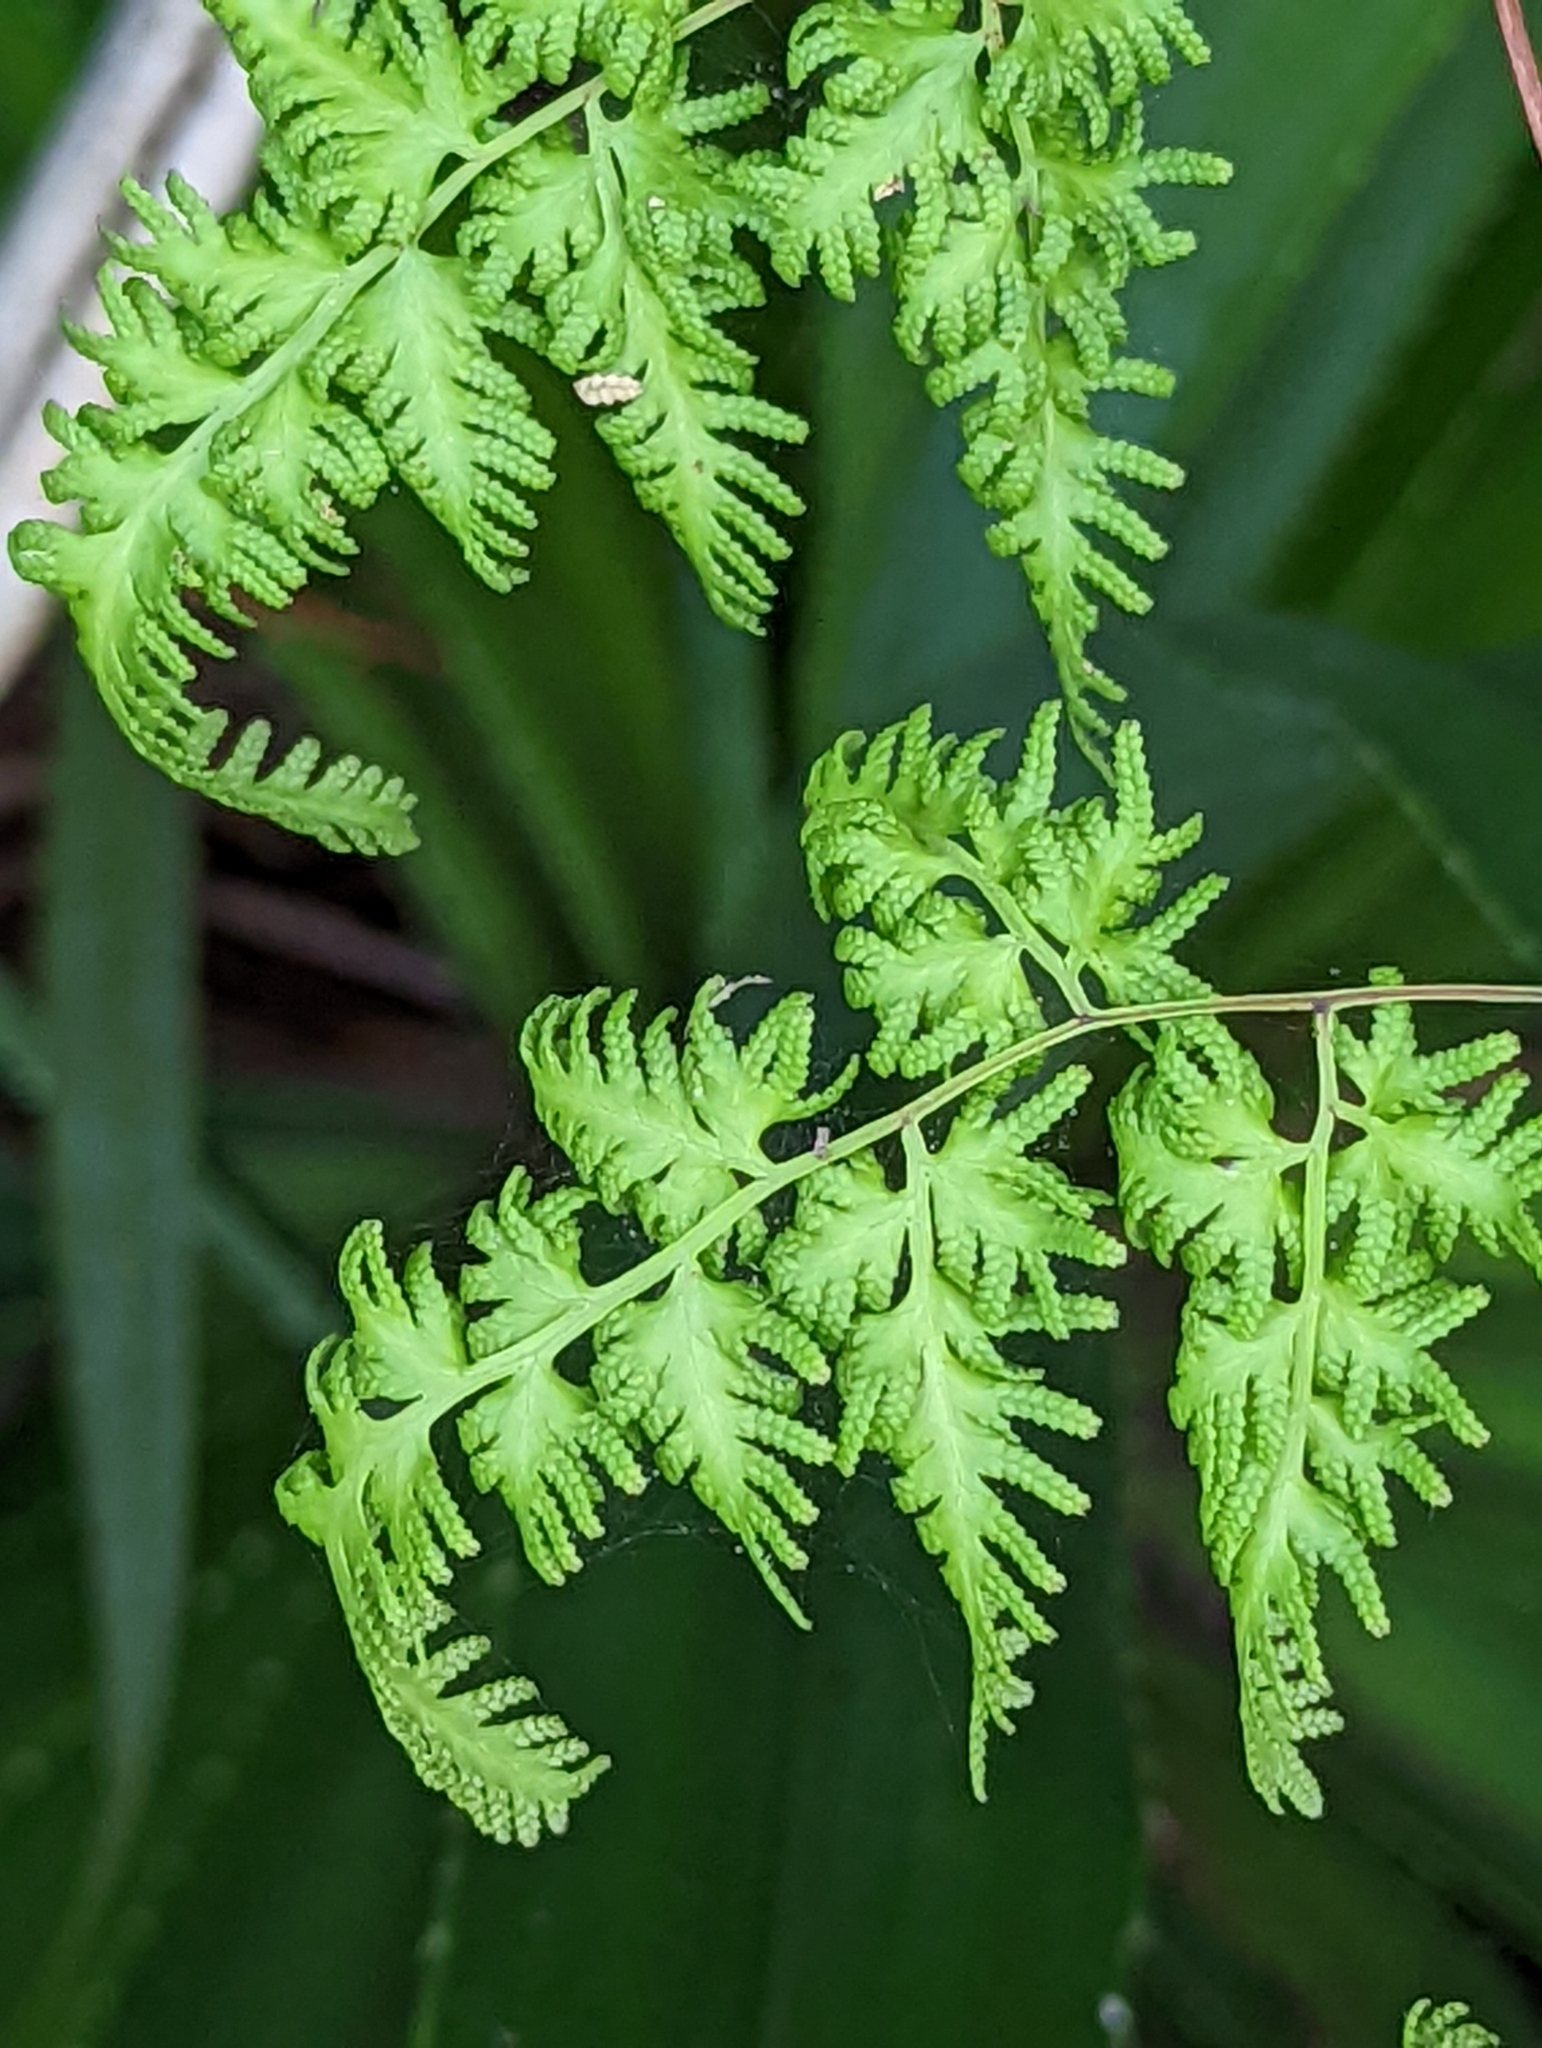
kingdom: Plantae
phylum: Tracheophyta
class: Polypodiopsida
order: Schizaeales
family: Lygodiaceae
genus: Lygodium
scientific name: Lygodium japonicum
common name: Japanese climbing fern
